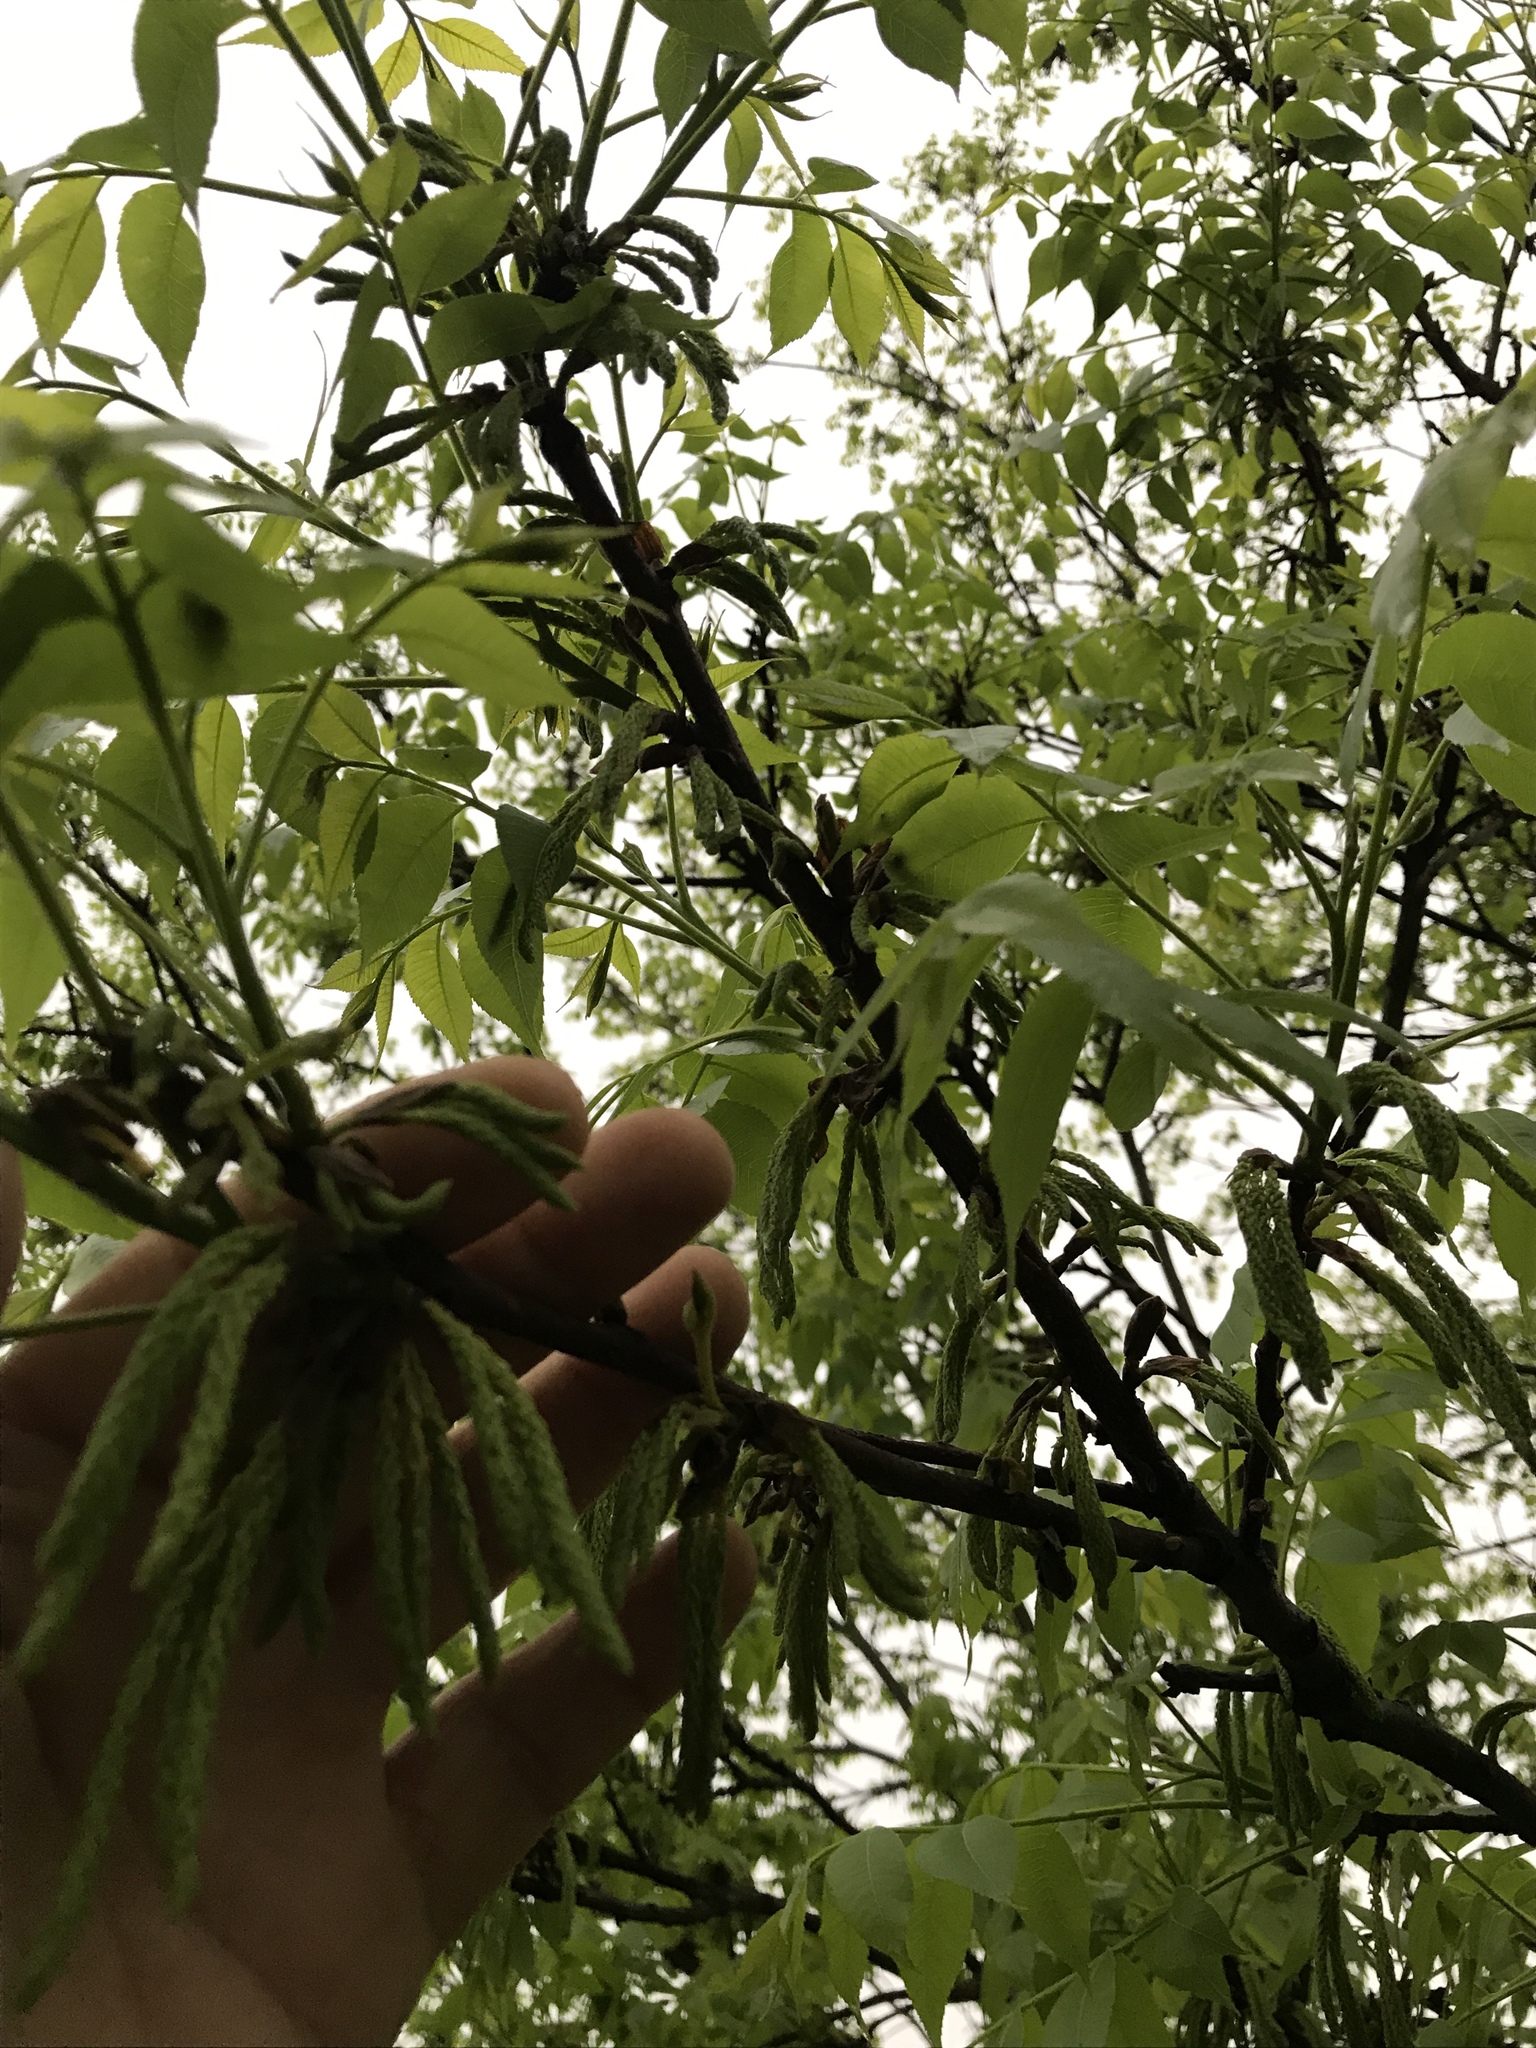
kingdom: Plantae
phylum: Tracheophyta
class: Magnoliopsida
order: Fagales
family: Juglandaceae
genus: Carya
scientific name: Carya illinoinensis
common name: Pecan
